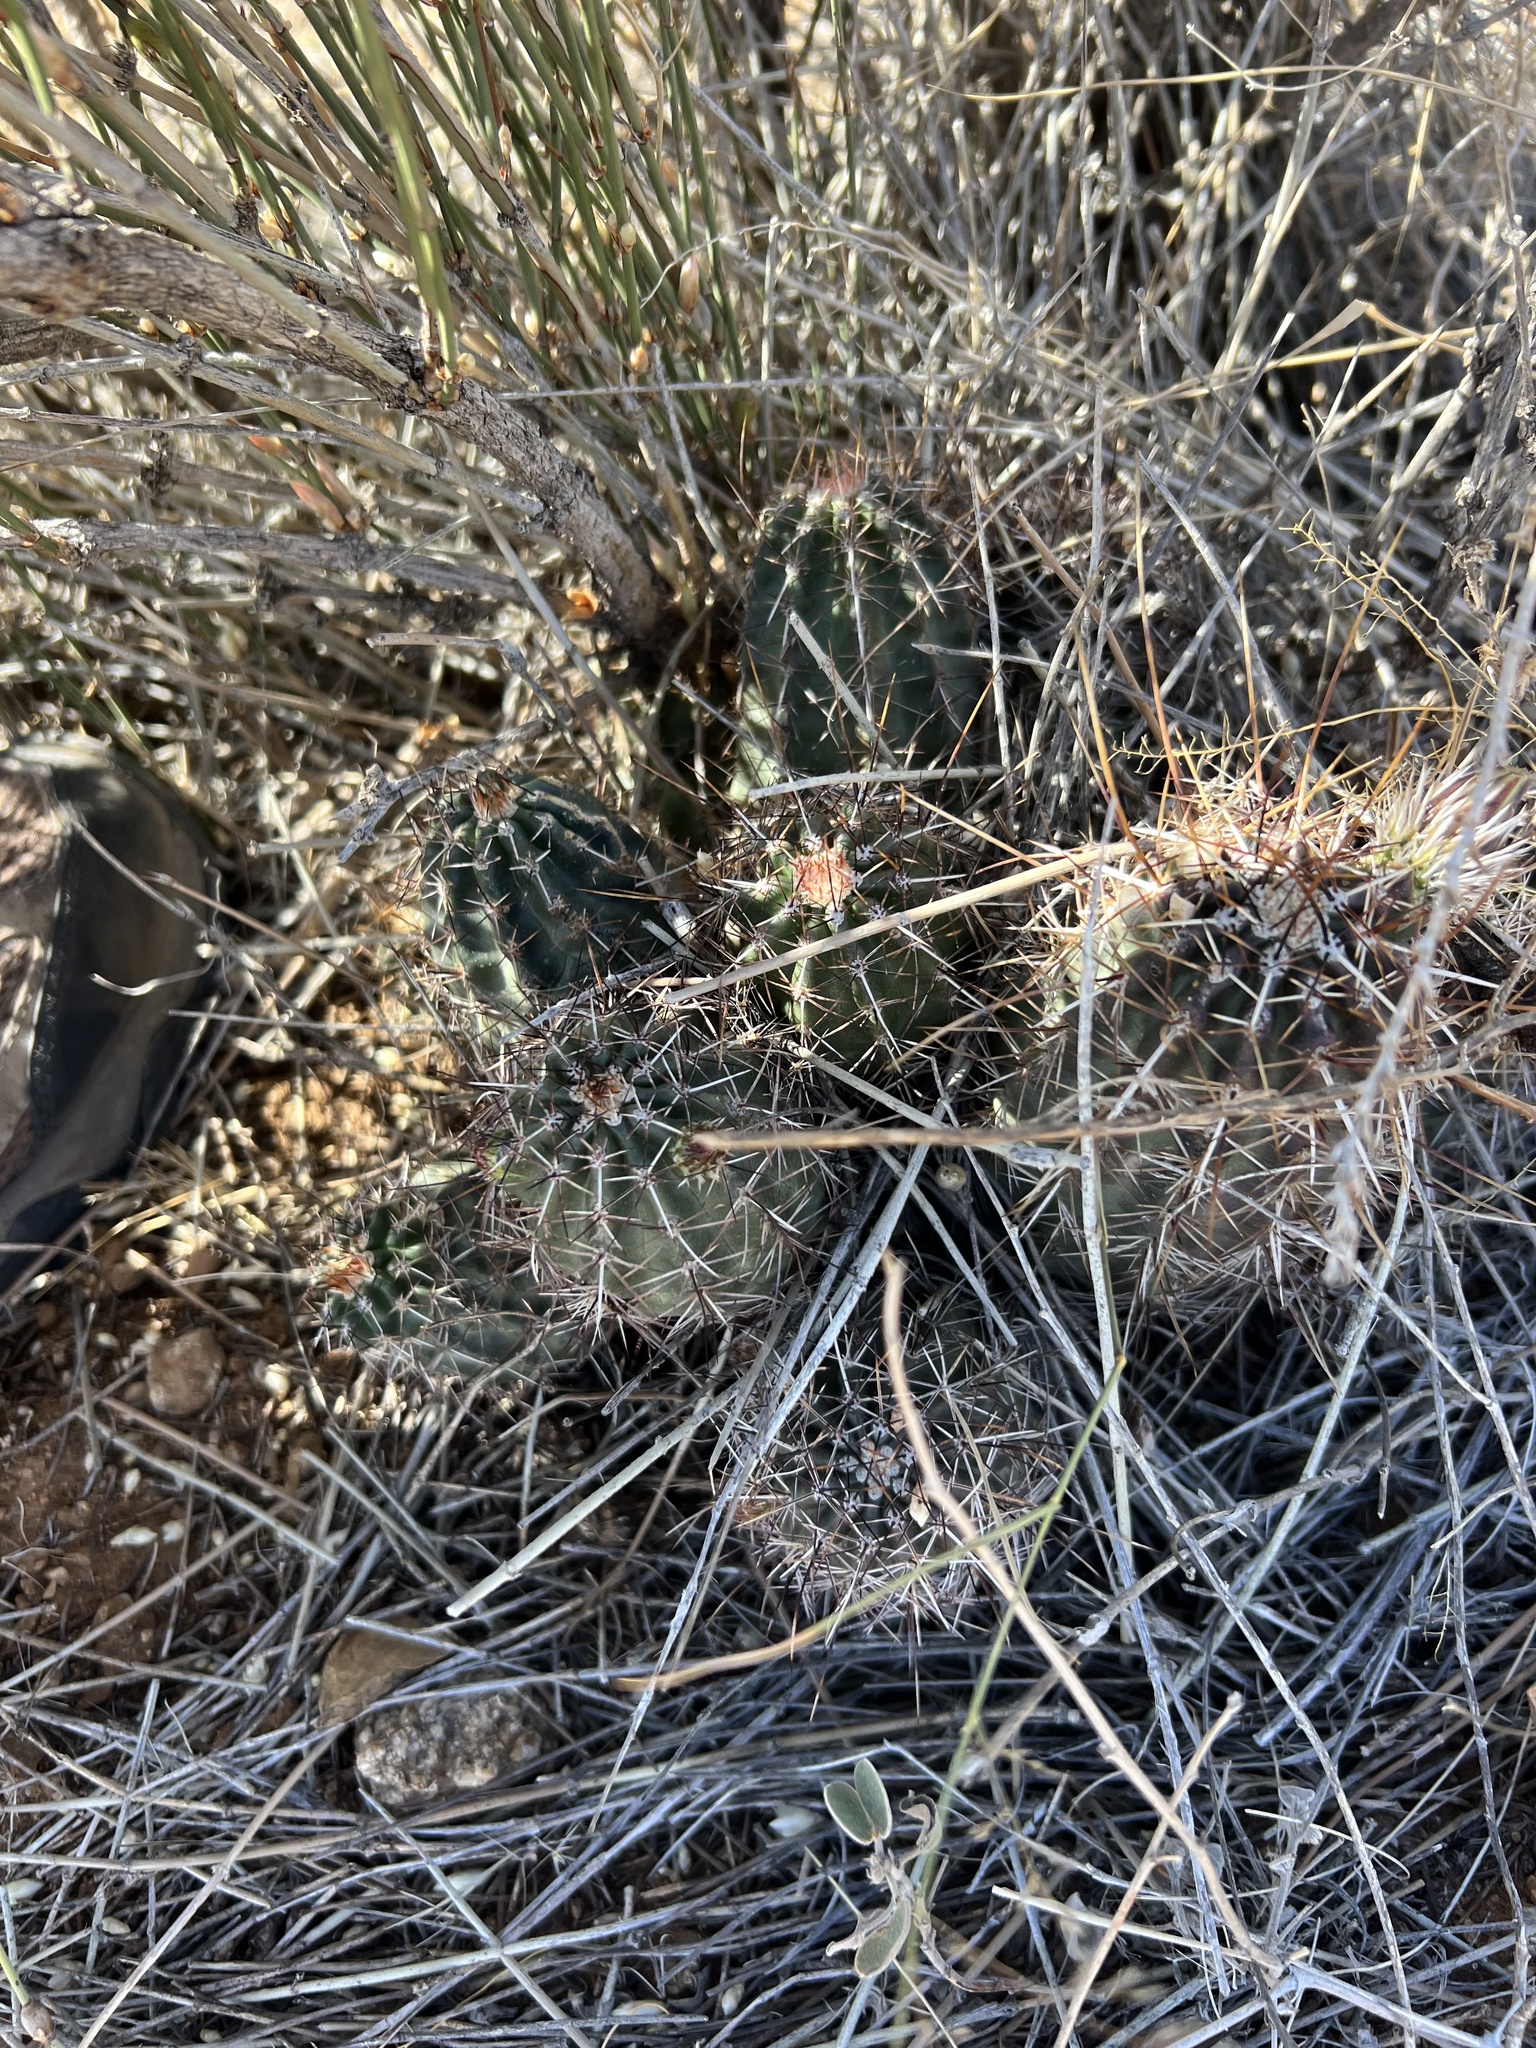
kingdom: Plantae
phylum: Tracheophyta
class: Magnoliopsida
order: Caryophyllales
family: Cactaceae
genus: Echinocereus
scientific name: Echinocereus fendleri
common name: Fendler's hedgehog cactus
